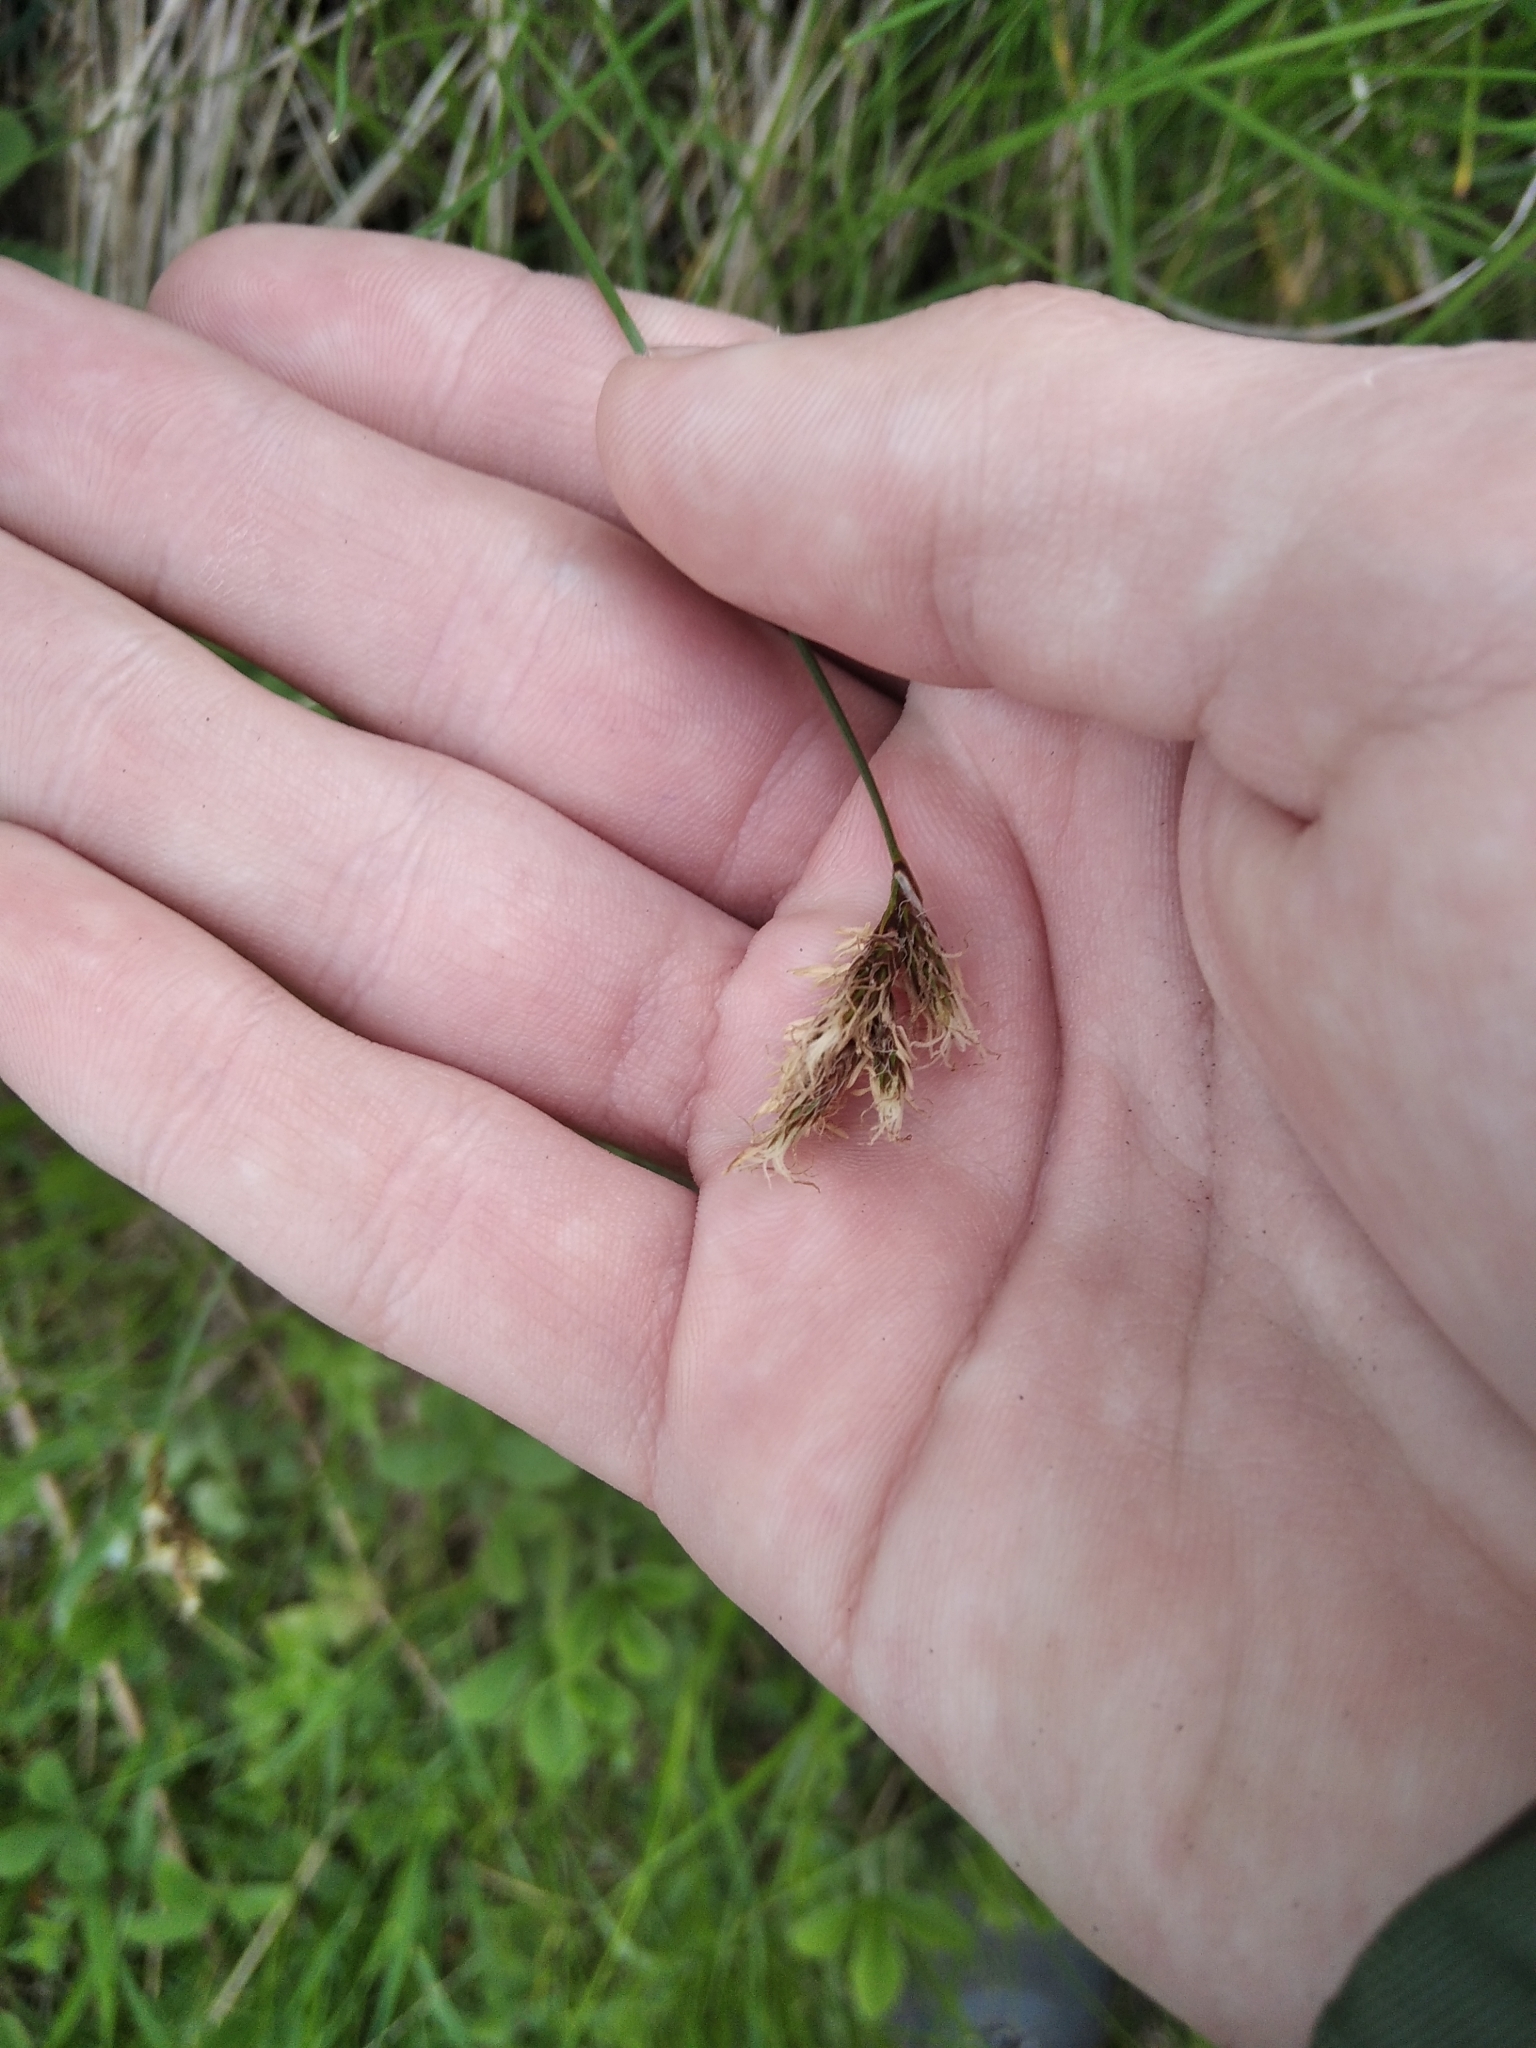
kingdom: Plantae
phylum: Tracheophyta
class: Liliopsida
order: Poales
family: Cyperaceae
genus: Carex
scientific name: Carex praecox
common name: Early sedge
